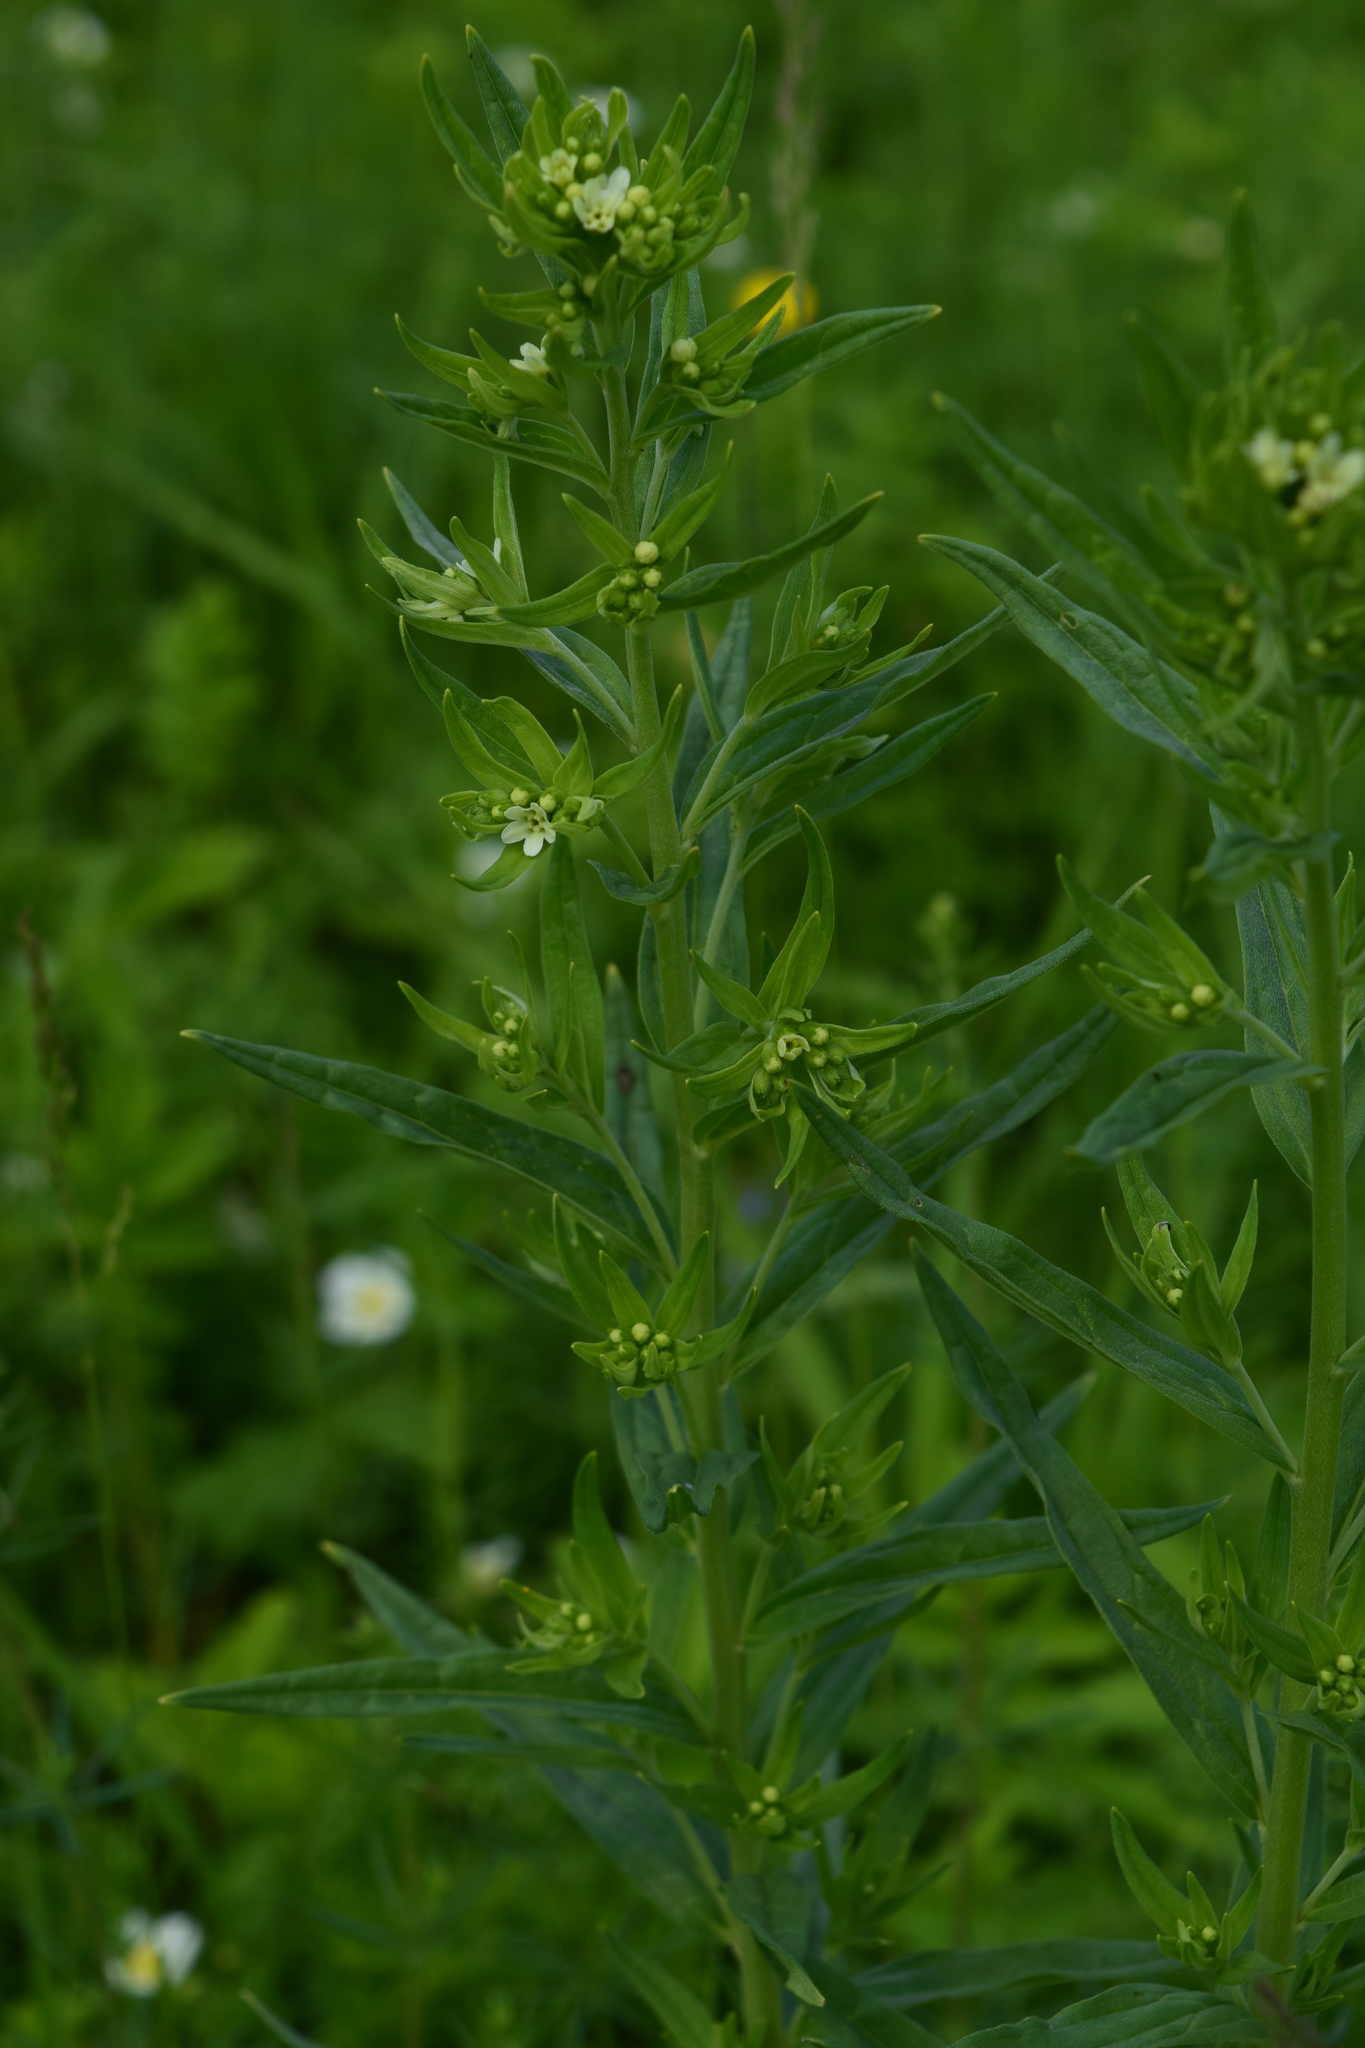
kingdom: Plantae
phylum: Tracheophyta
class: Magnoliopsida
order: Boraginales
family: Boraginaceae
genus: Lithospermum
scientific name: Lithospermum officinale
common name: Common gromwell
